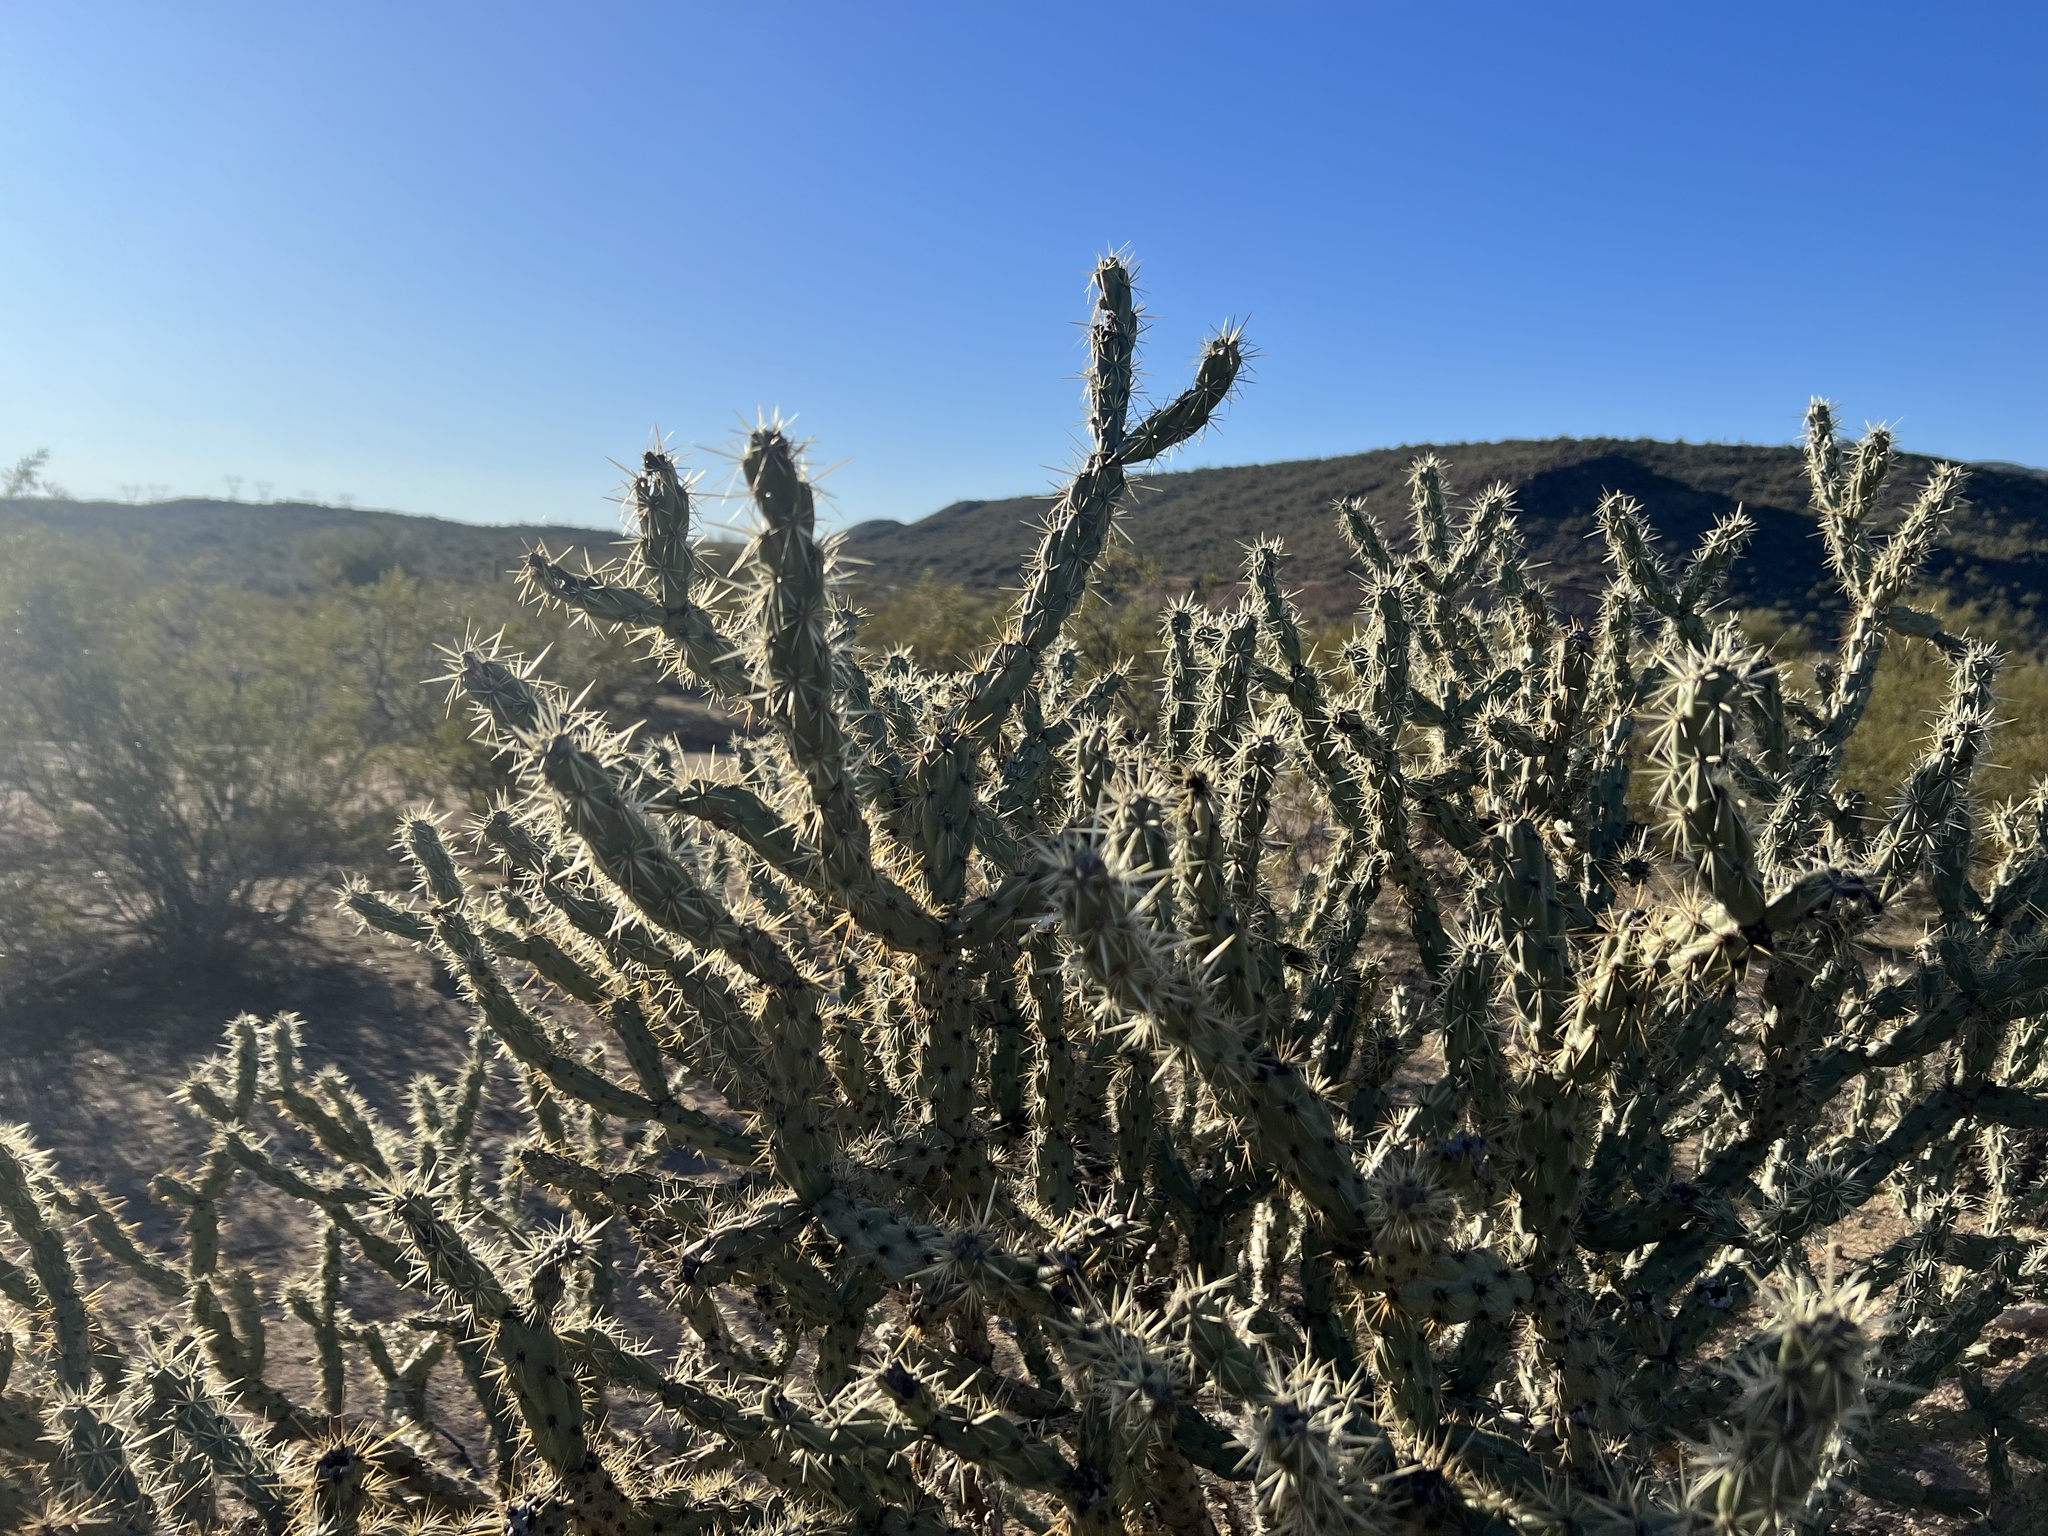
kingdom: Plantae
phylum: Tracheophyta
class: Magnoliopsida
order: Caryophyllales
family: Cactaceae
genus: Cylindropuntia
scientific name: Cylindropuntia acanthocarpa
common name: Buckhorn cholla
